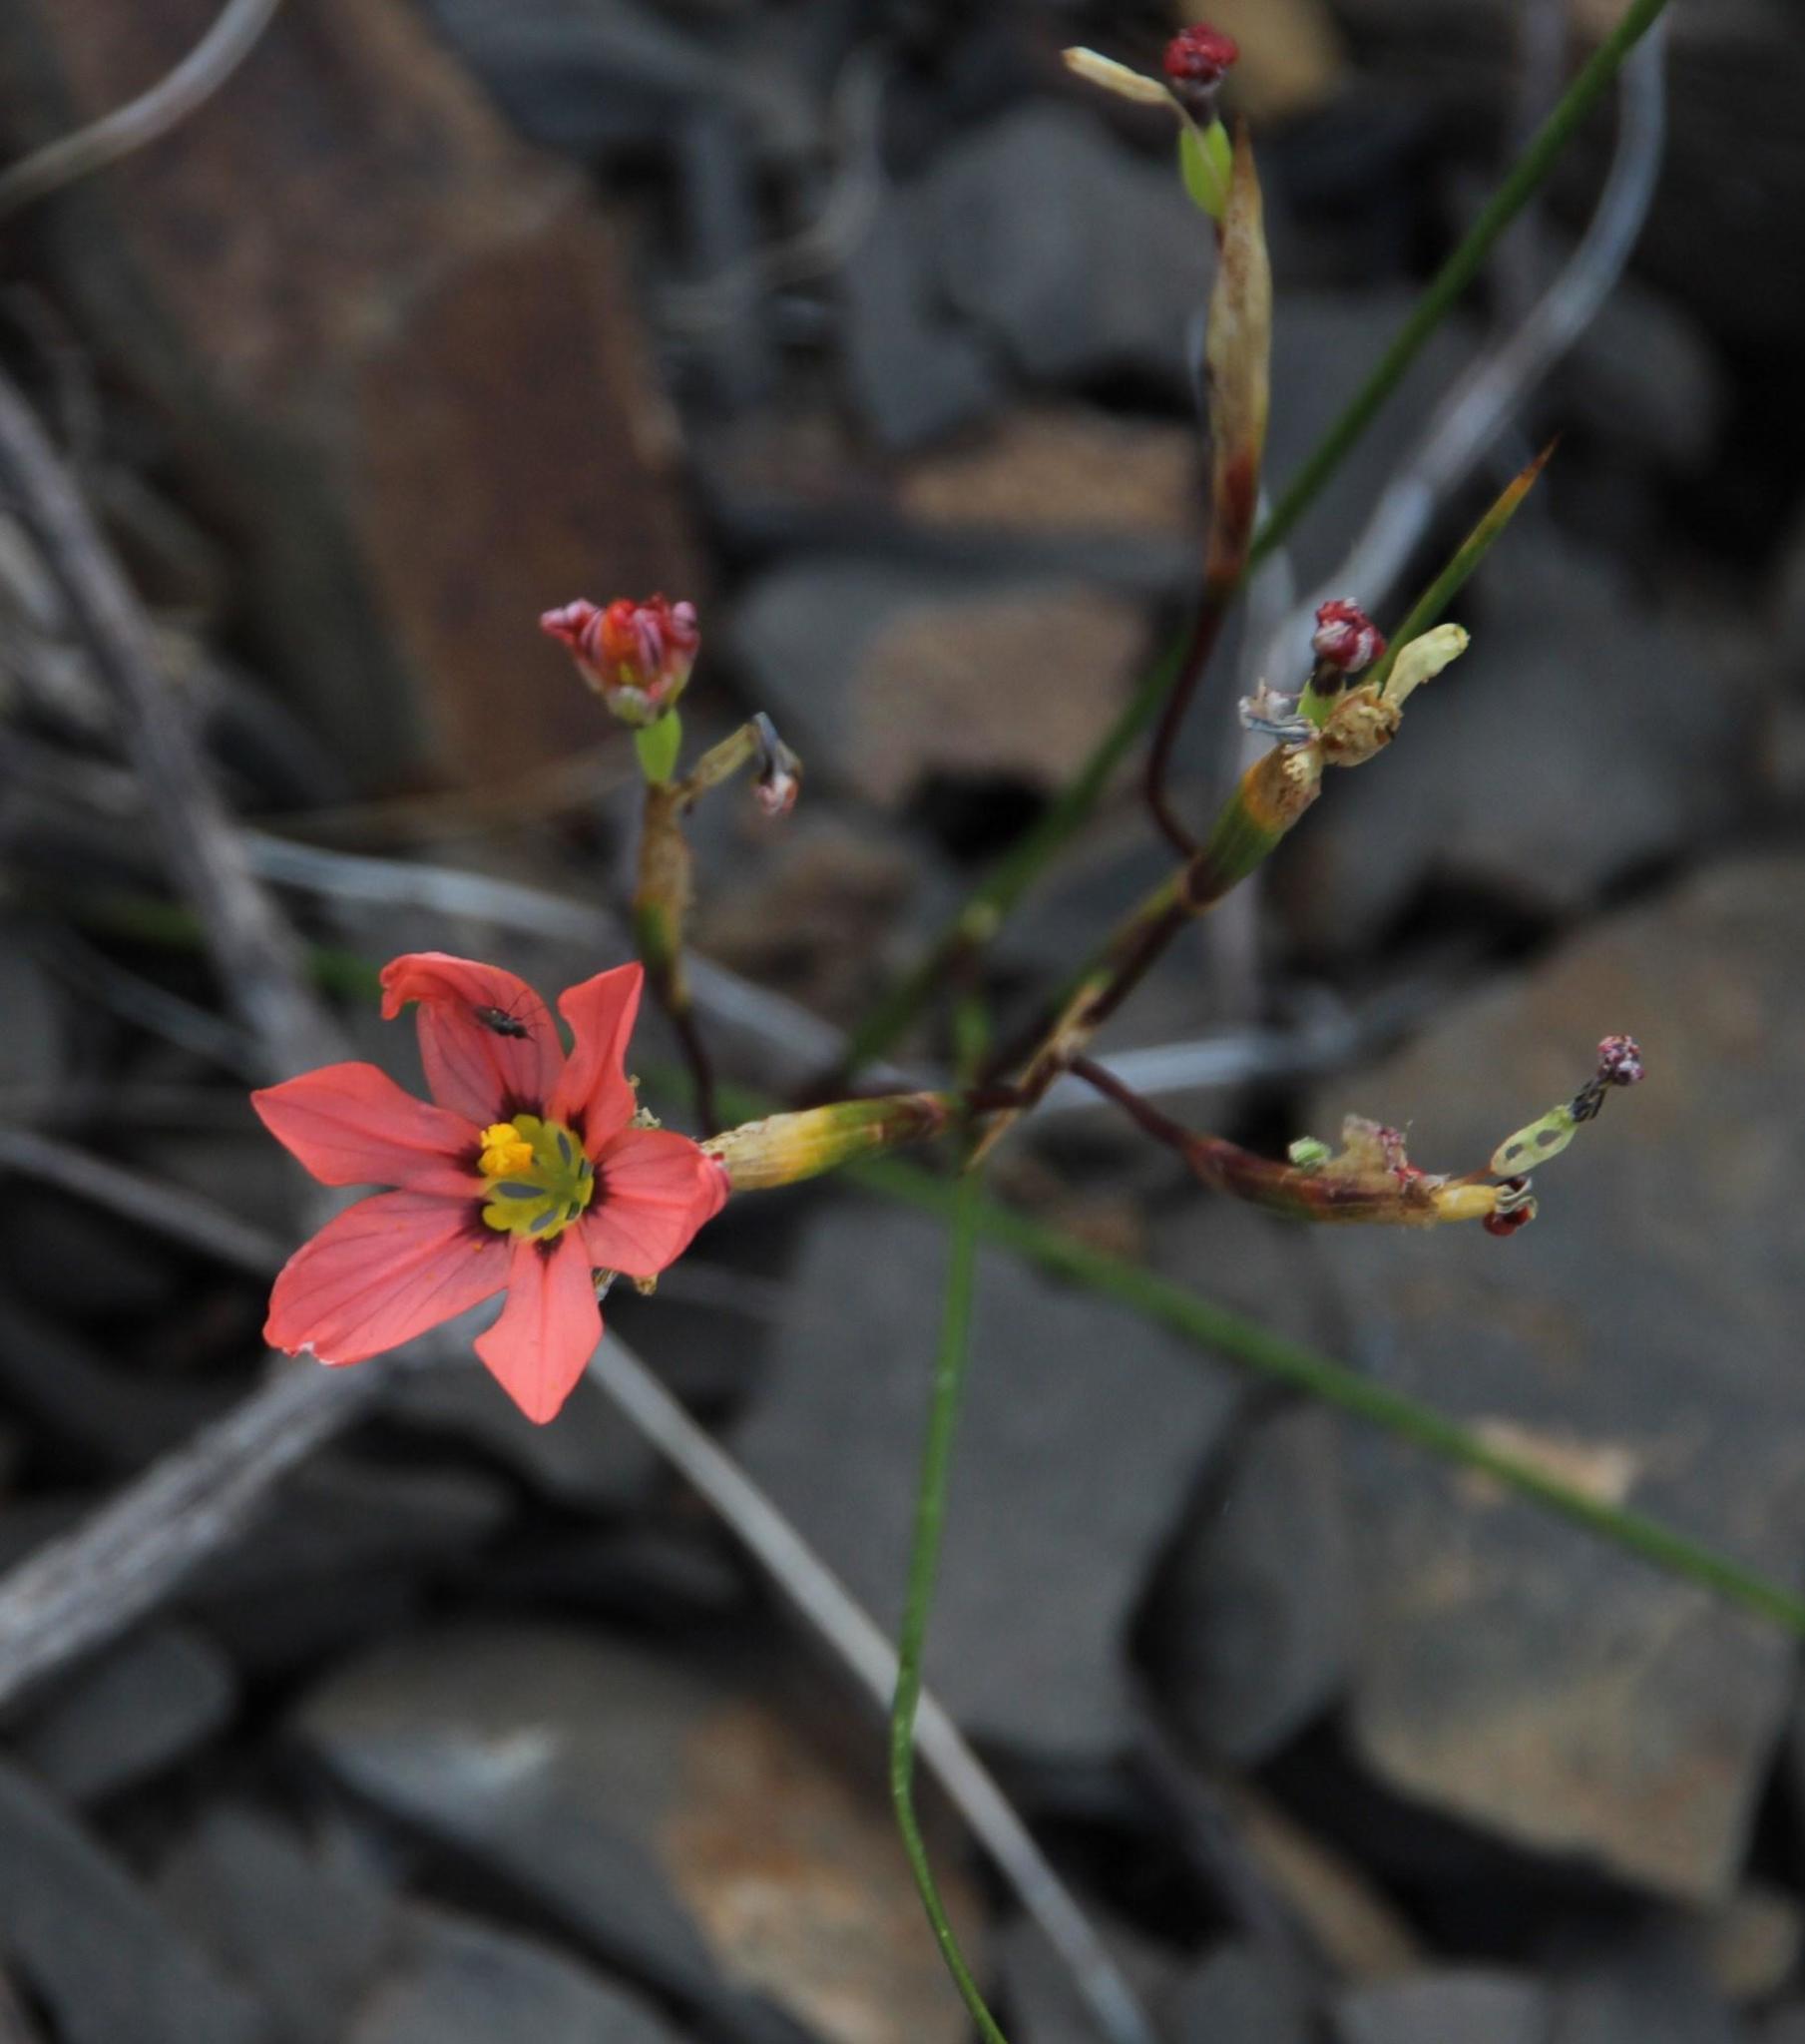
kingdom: Plantae
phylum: Tracheophyta
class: Liliopsida
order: Asparagales
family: Iridaceae
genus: Moraea
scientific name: Moraea fenestrata
